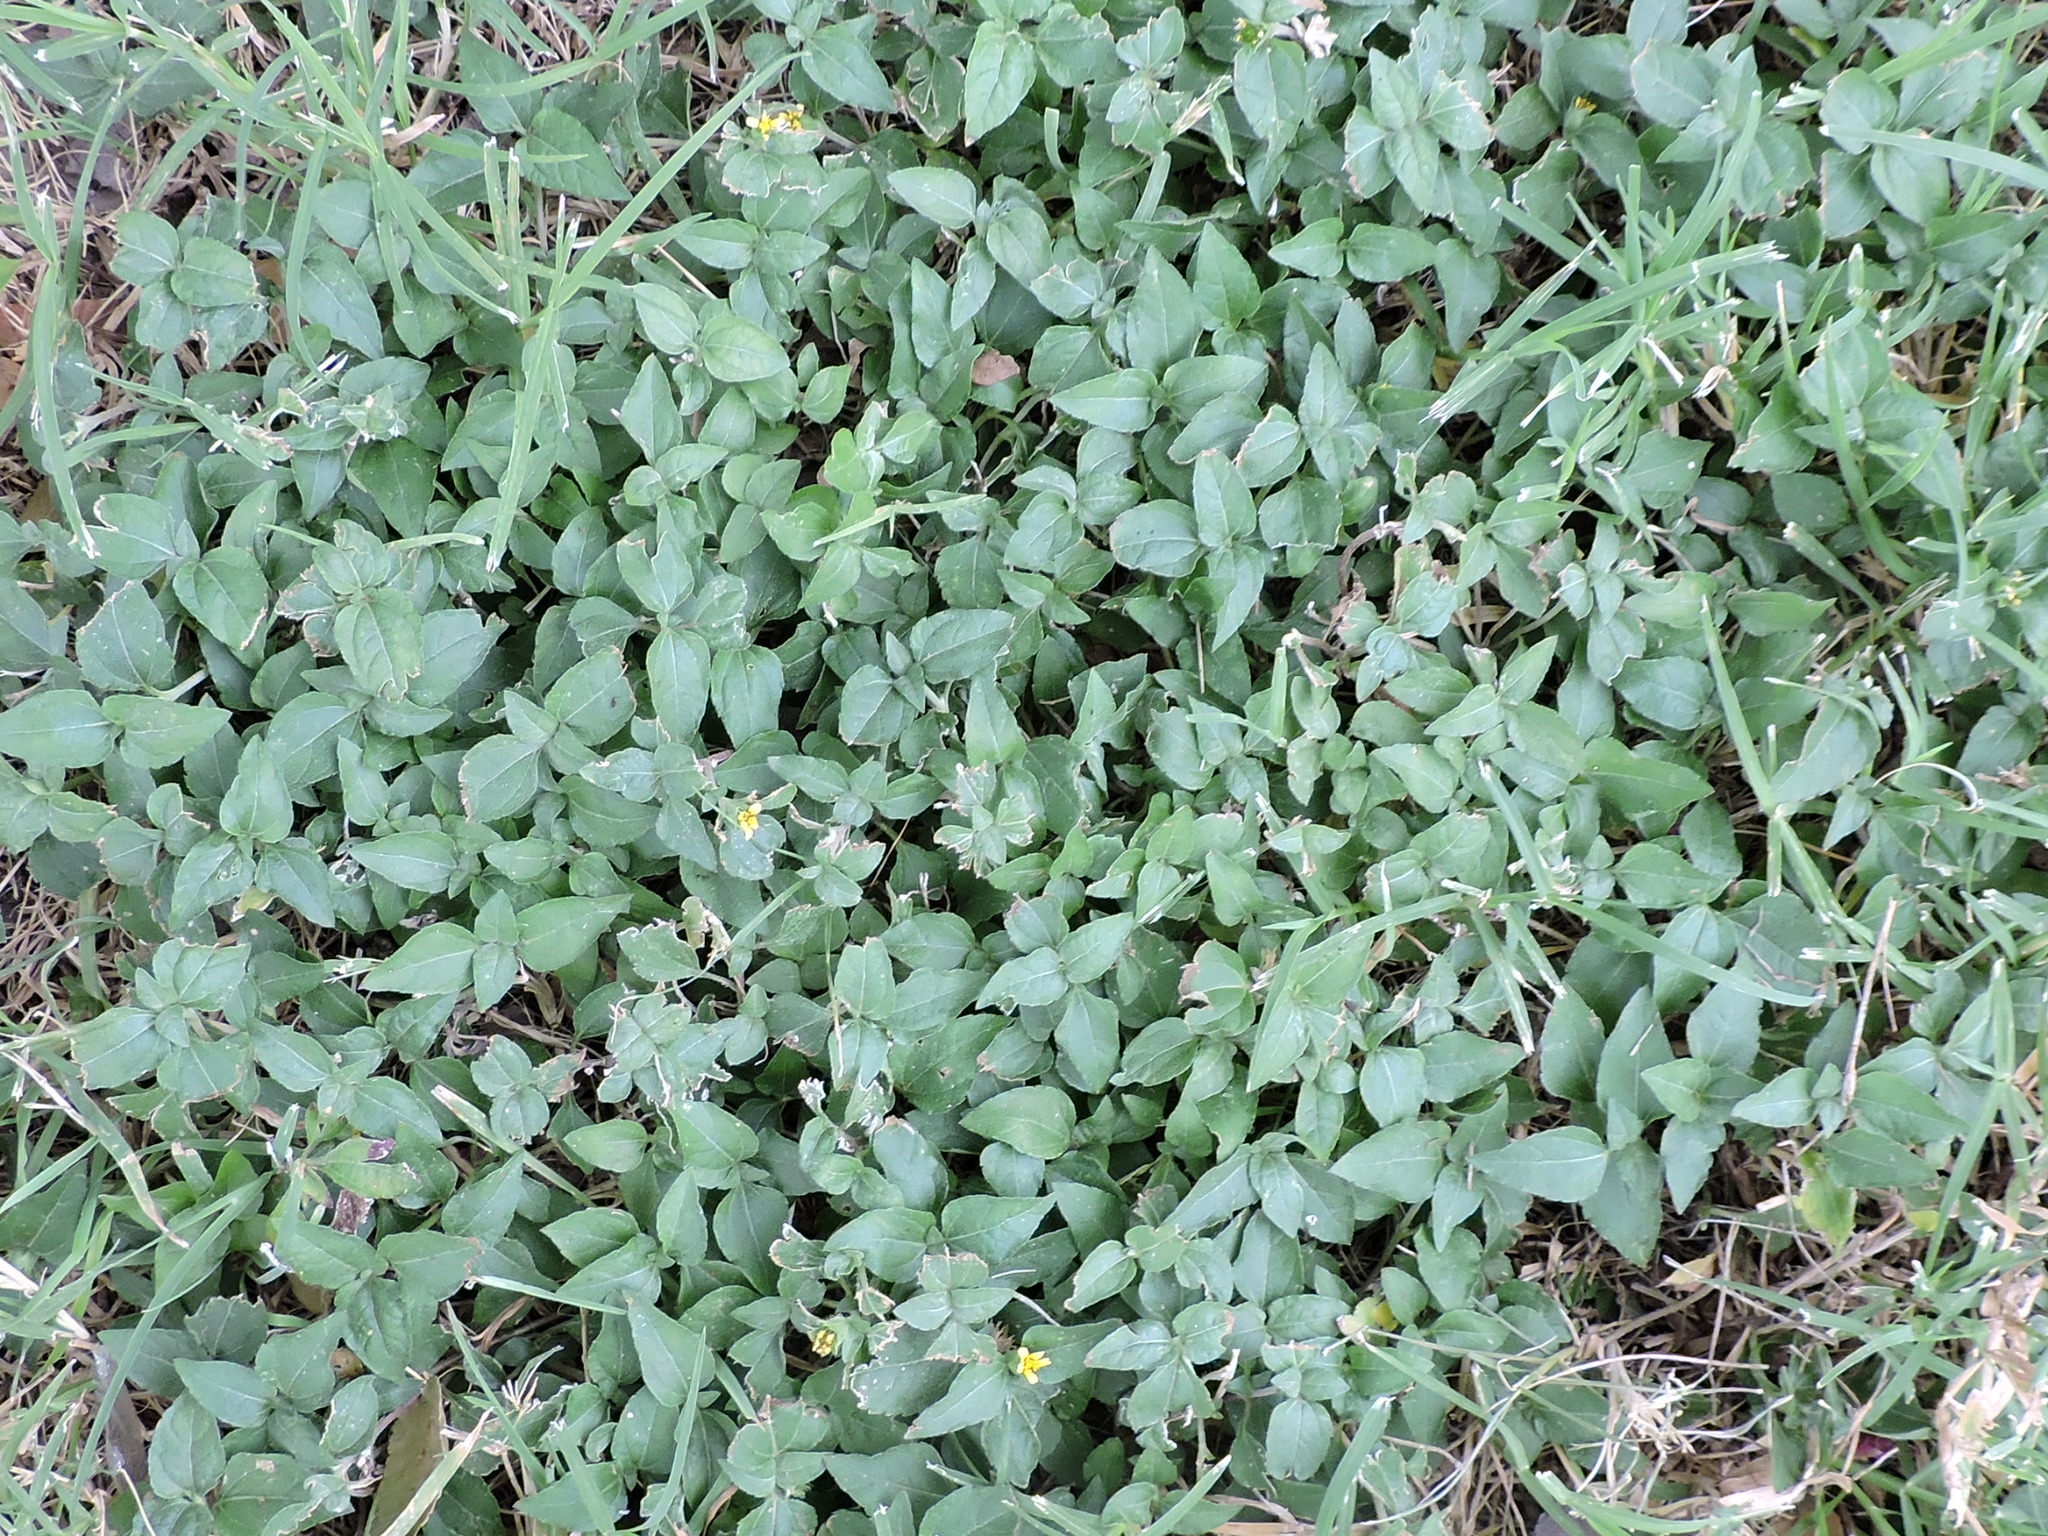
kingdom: Plantae
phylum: Tracheophyta
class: Magnoliopsida
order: Asterales
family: Asteraceae
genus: Calyptocarpus
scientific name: Calyptocarpus vialis
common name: Straggler daisy
